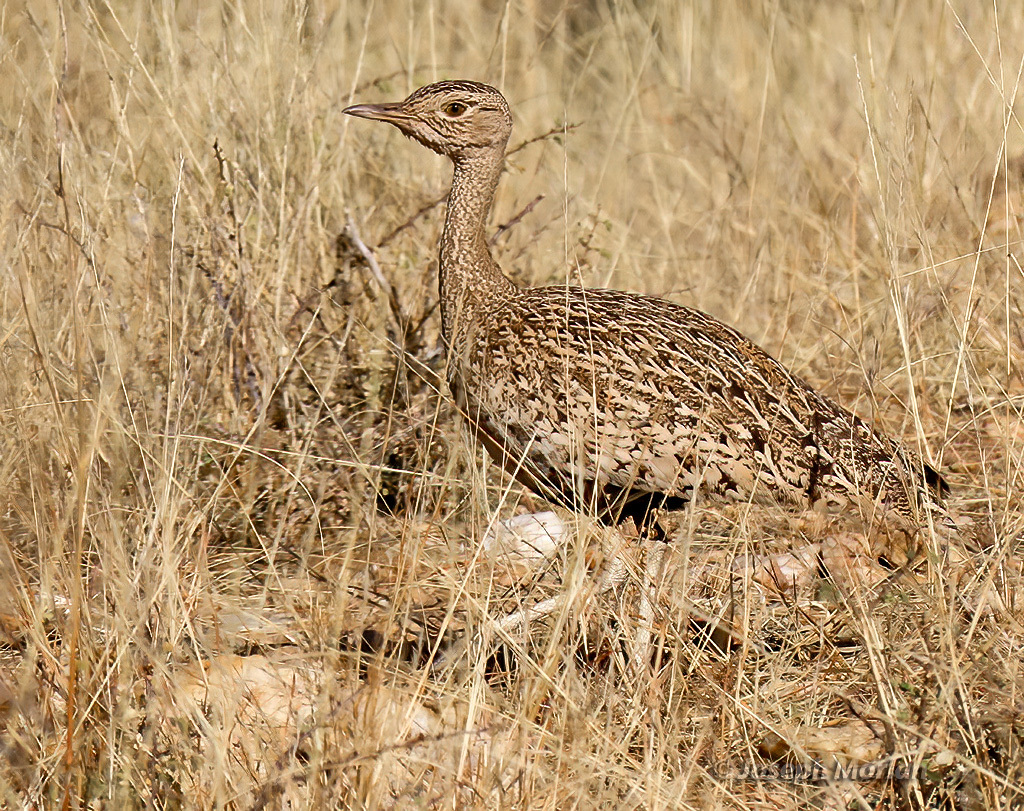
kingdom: Animalia
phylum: Chordata
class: Aves
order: Otidiformes
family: Otididae
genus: Lophotis
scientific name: Lophotis ruficrista
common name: Red-crested korhaan
